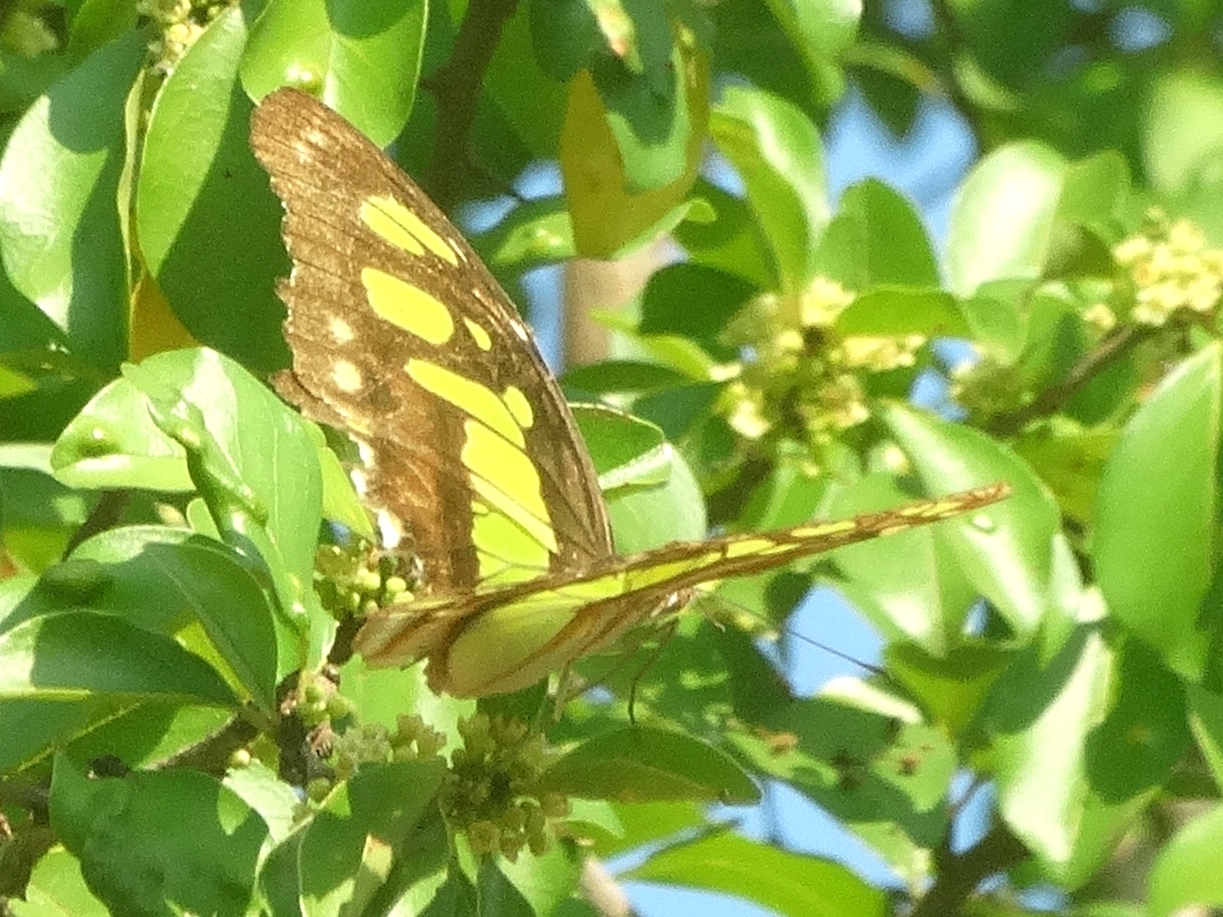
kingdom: Animalia
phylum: Arthropoda
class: Insecta
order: Lepidoptera
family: Nymphalidae
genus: Siproeta
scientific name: Siproeta stelenes
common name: Malachite
